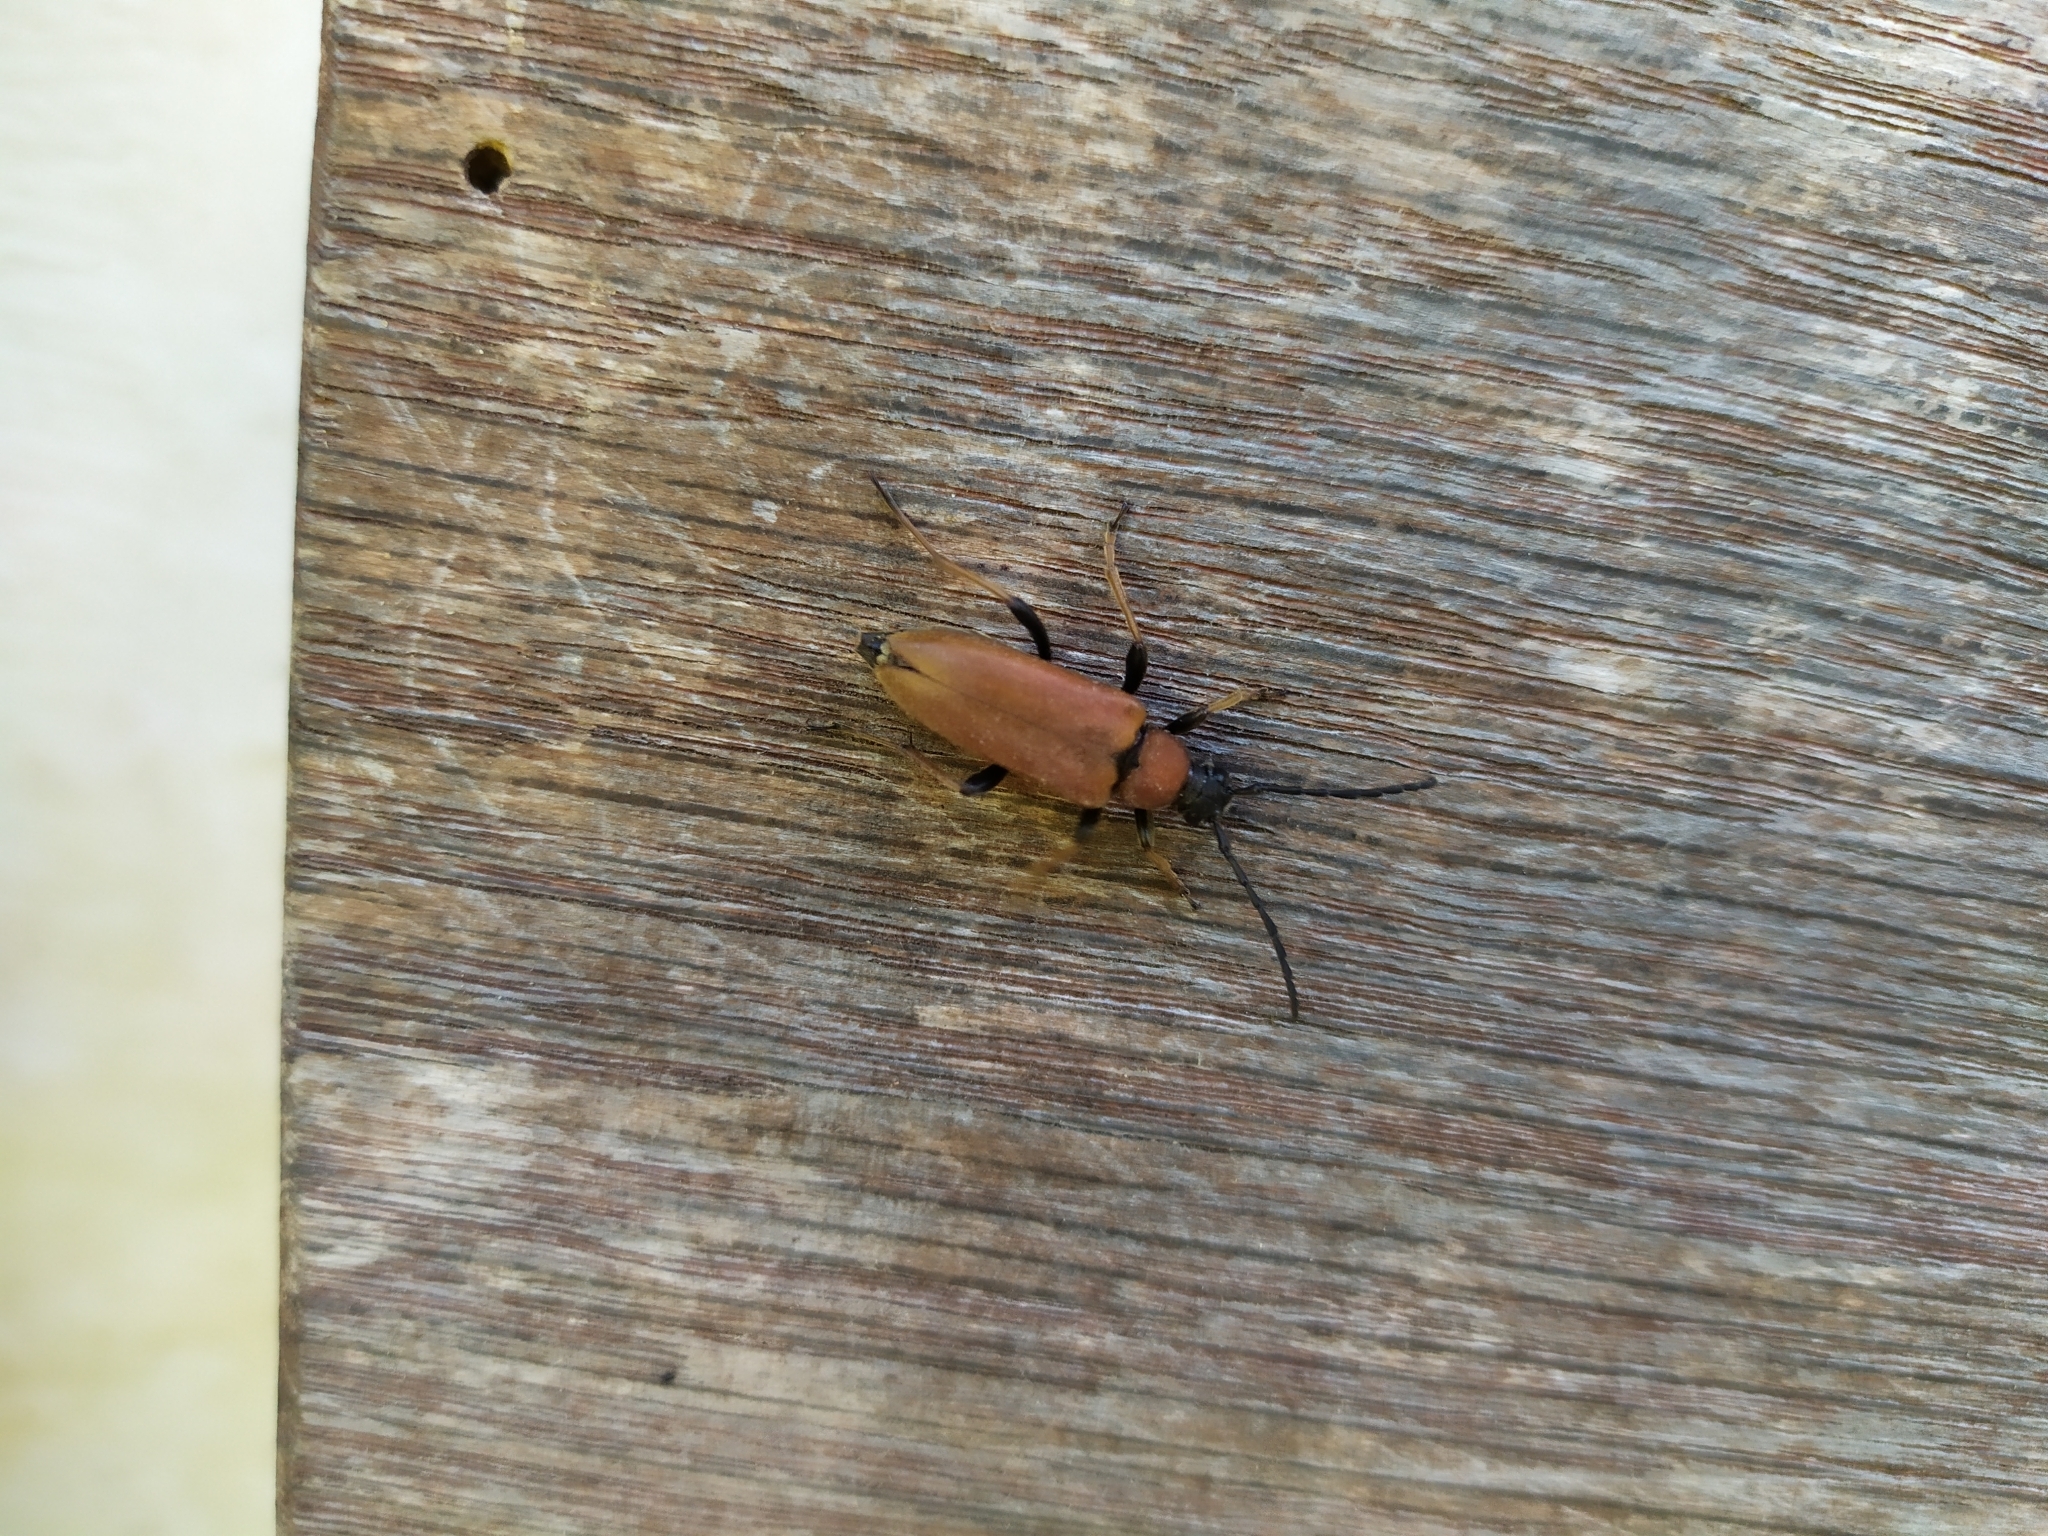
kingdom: Animalia
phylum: Arthropoda
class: Insecta
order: Coleoptera
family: Cerambycidae
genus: Stictoleptura
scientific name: Stictoleptura rubra
